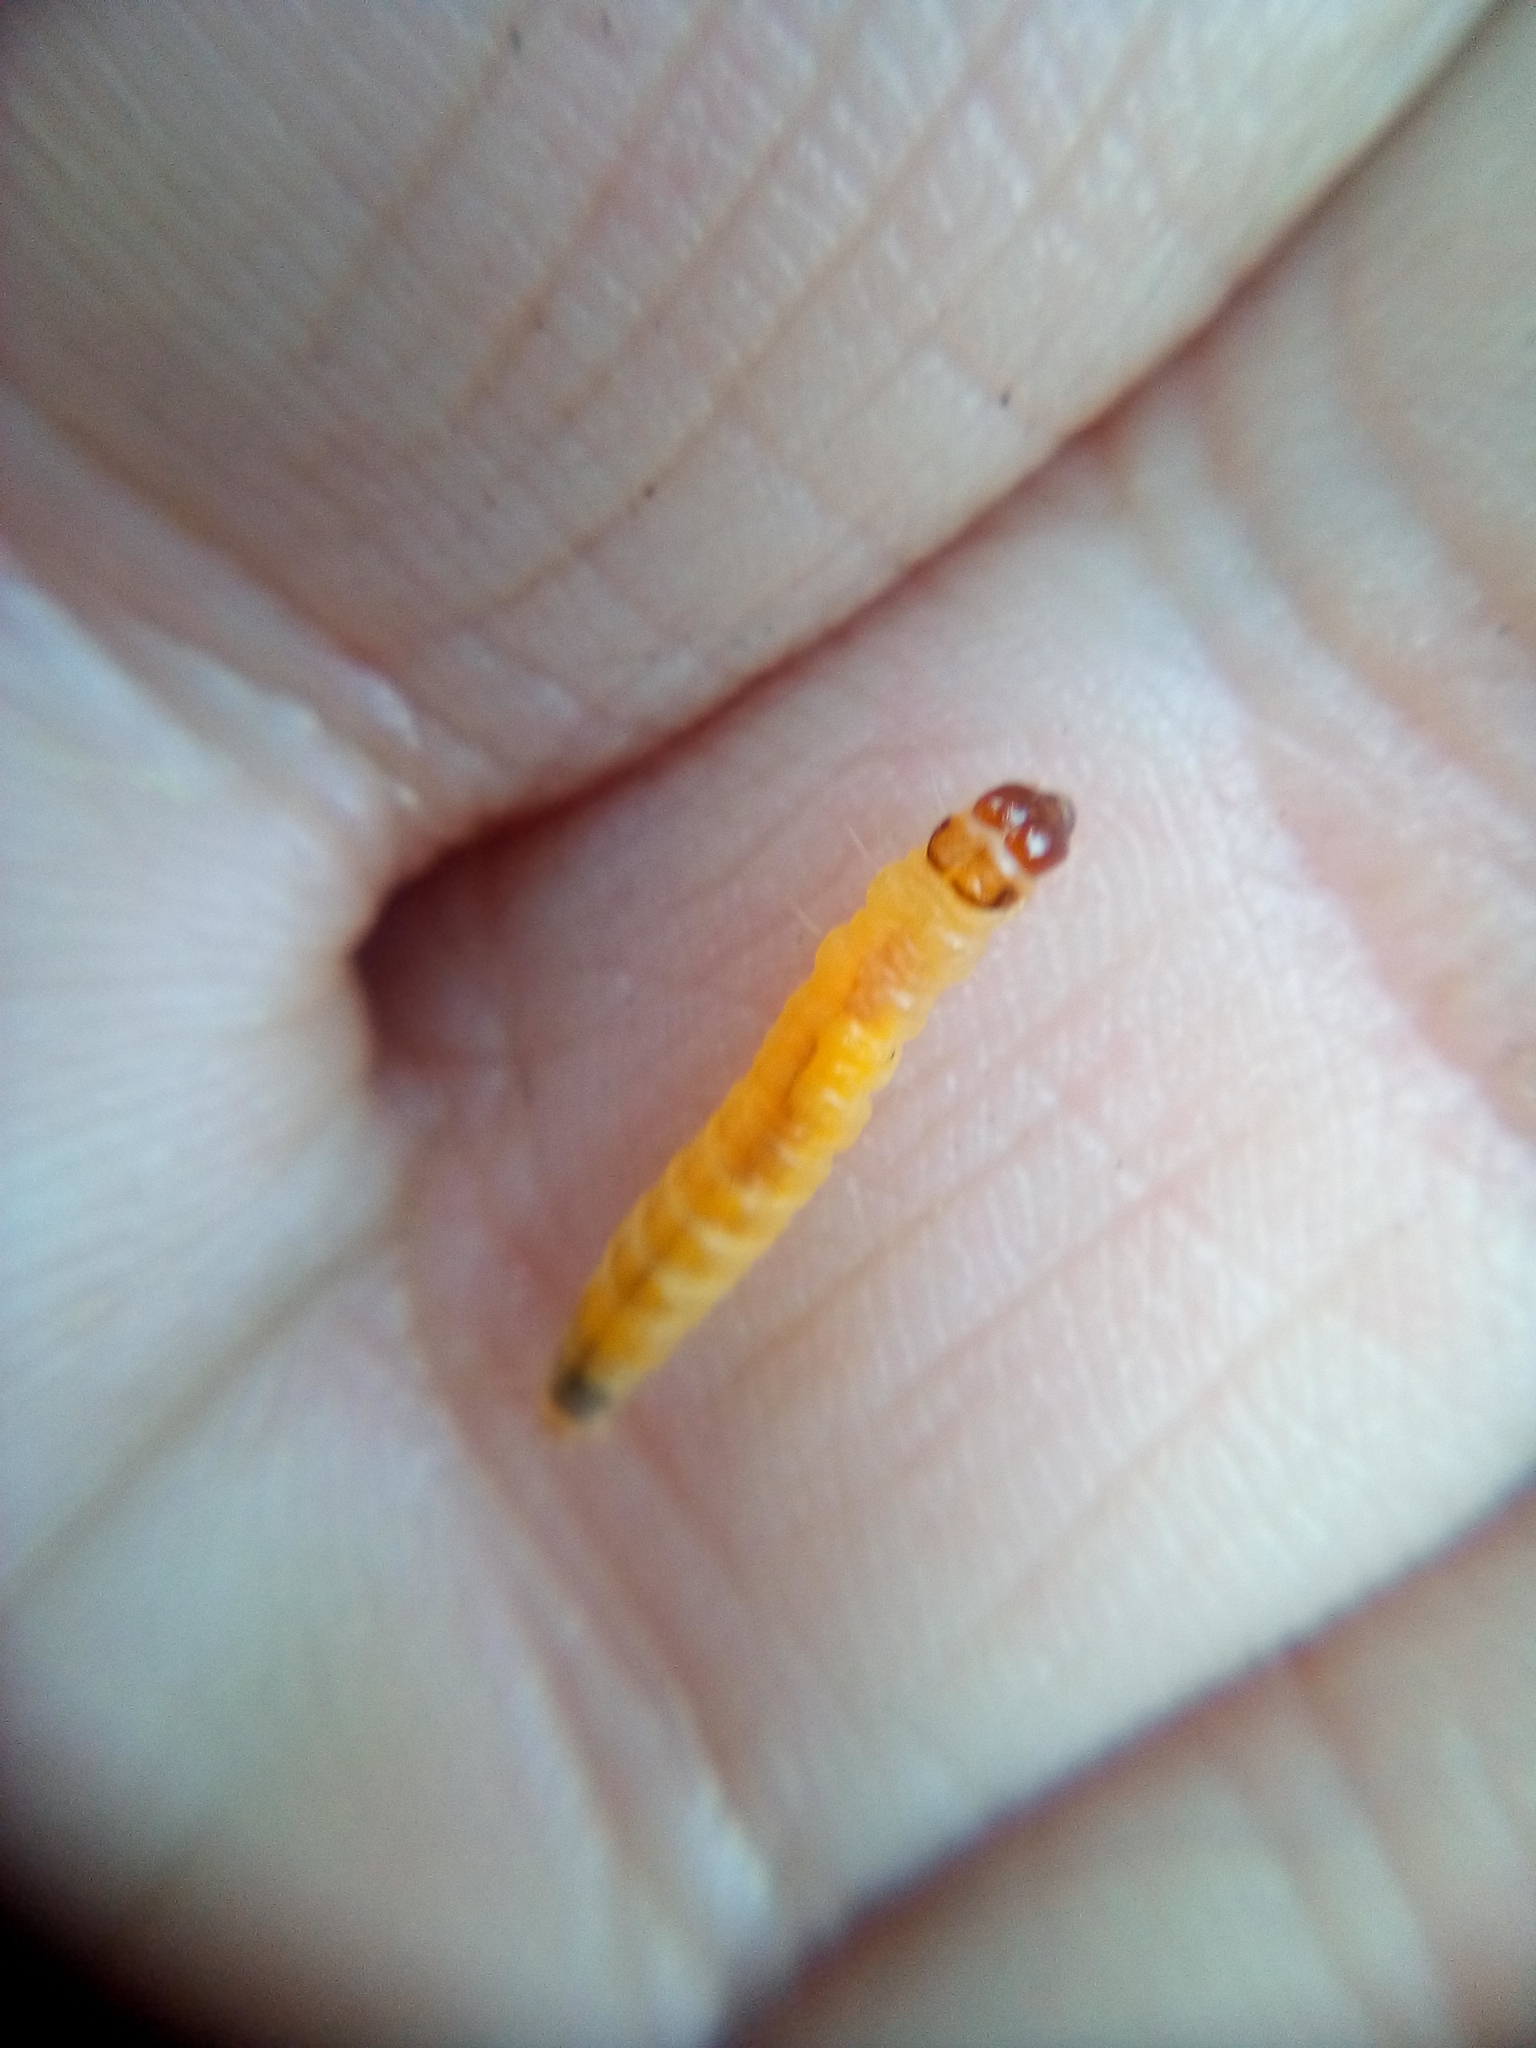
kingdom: Animalia
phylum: Arthropoda
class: Insecta
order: Lepidoptera
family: Tortricidae
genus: Catamacta
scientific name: Catamacta lotinana
